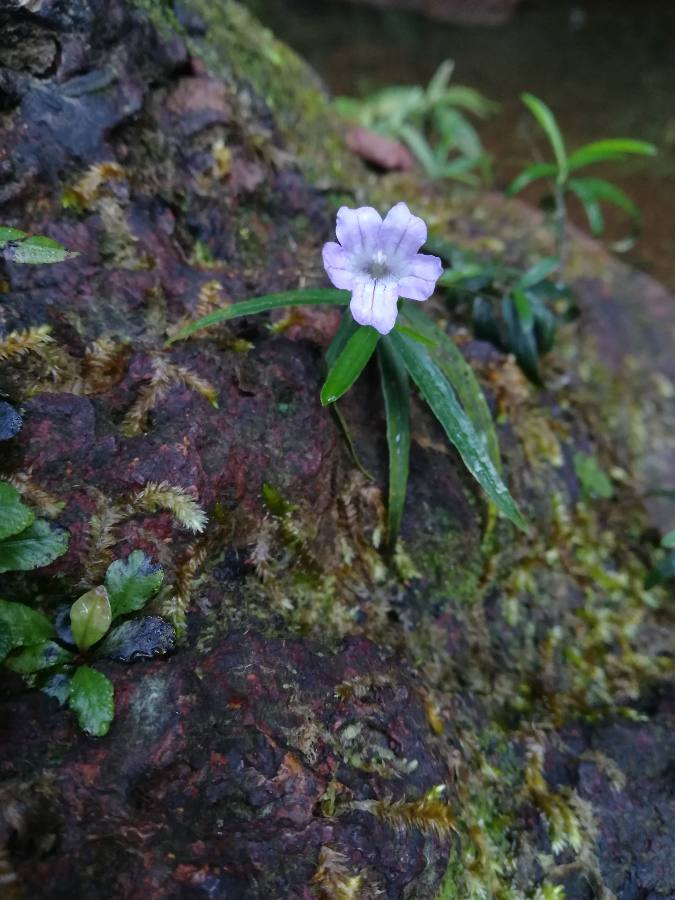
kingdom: Plantae
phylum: Tracheophyta
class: Magnoliopsida
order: Lamiales
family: Acanthaceae
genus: Ruellia
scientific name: Ruellia longifolia
